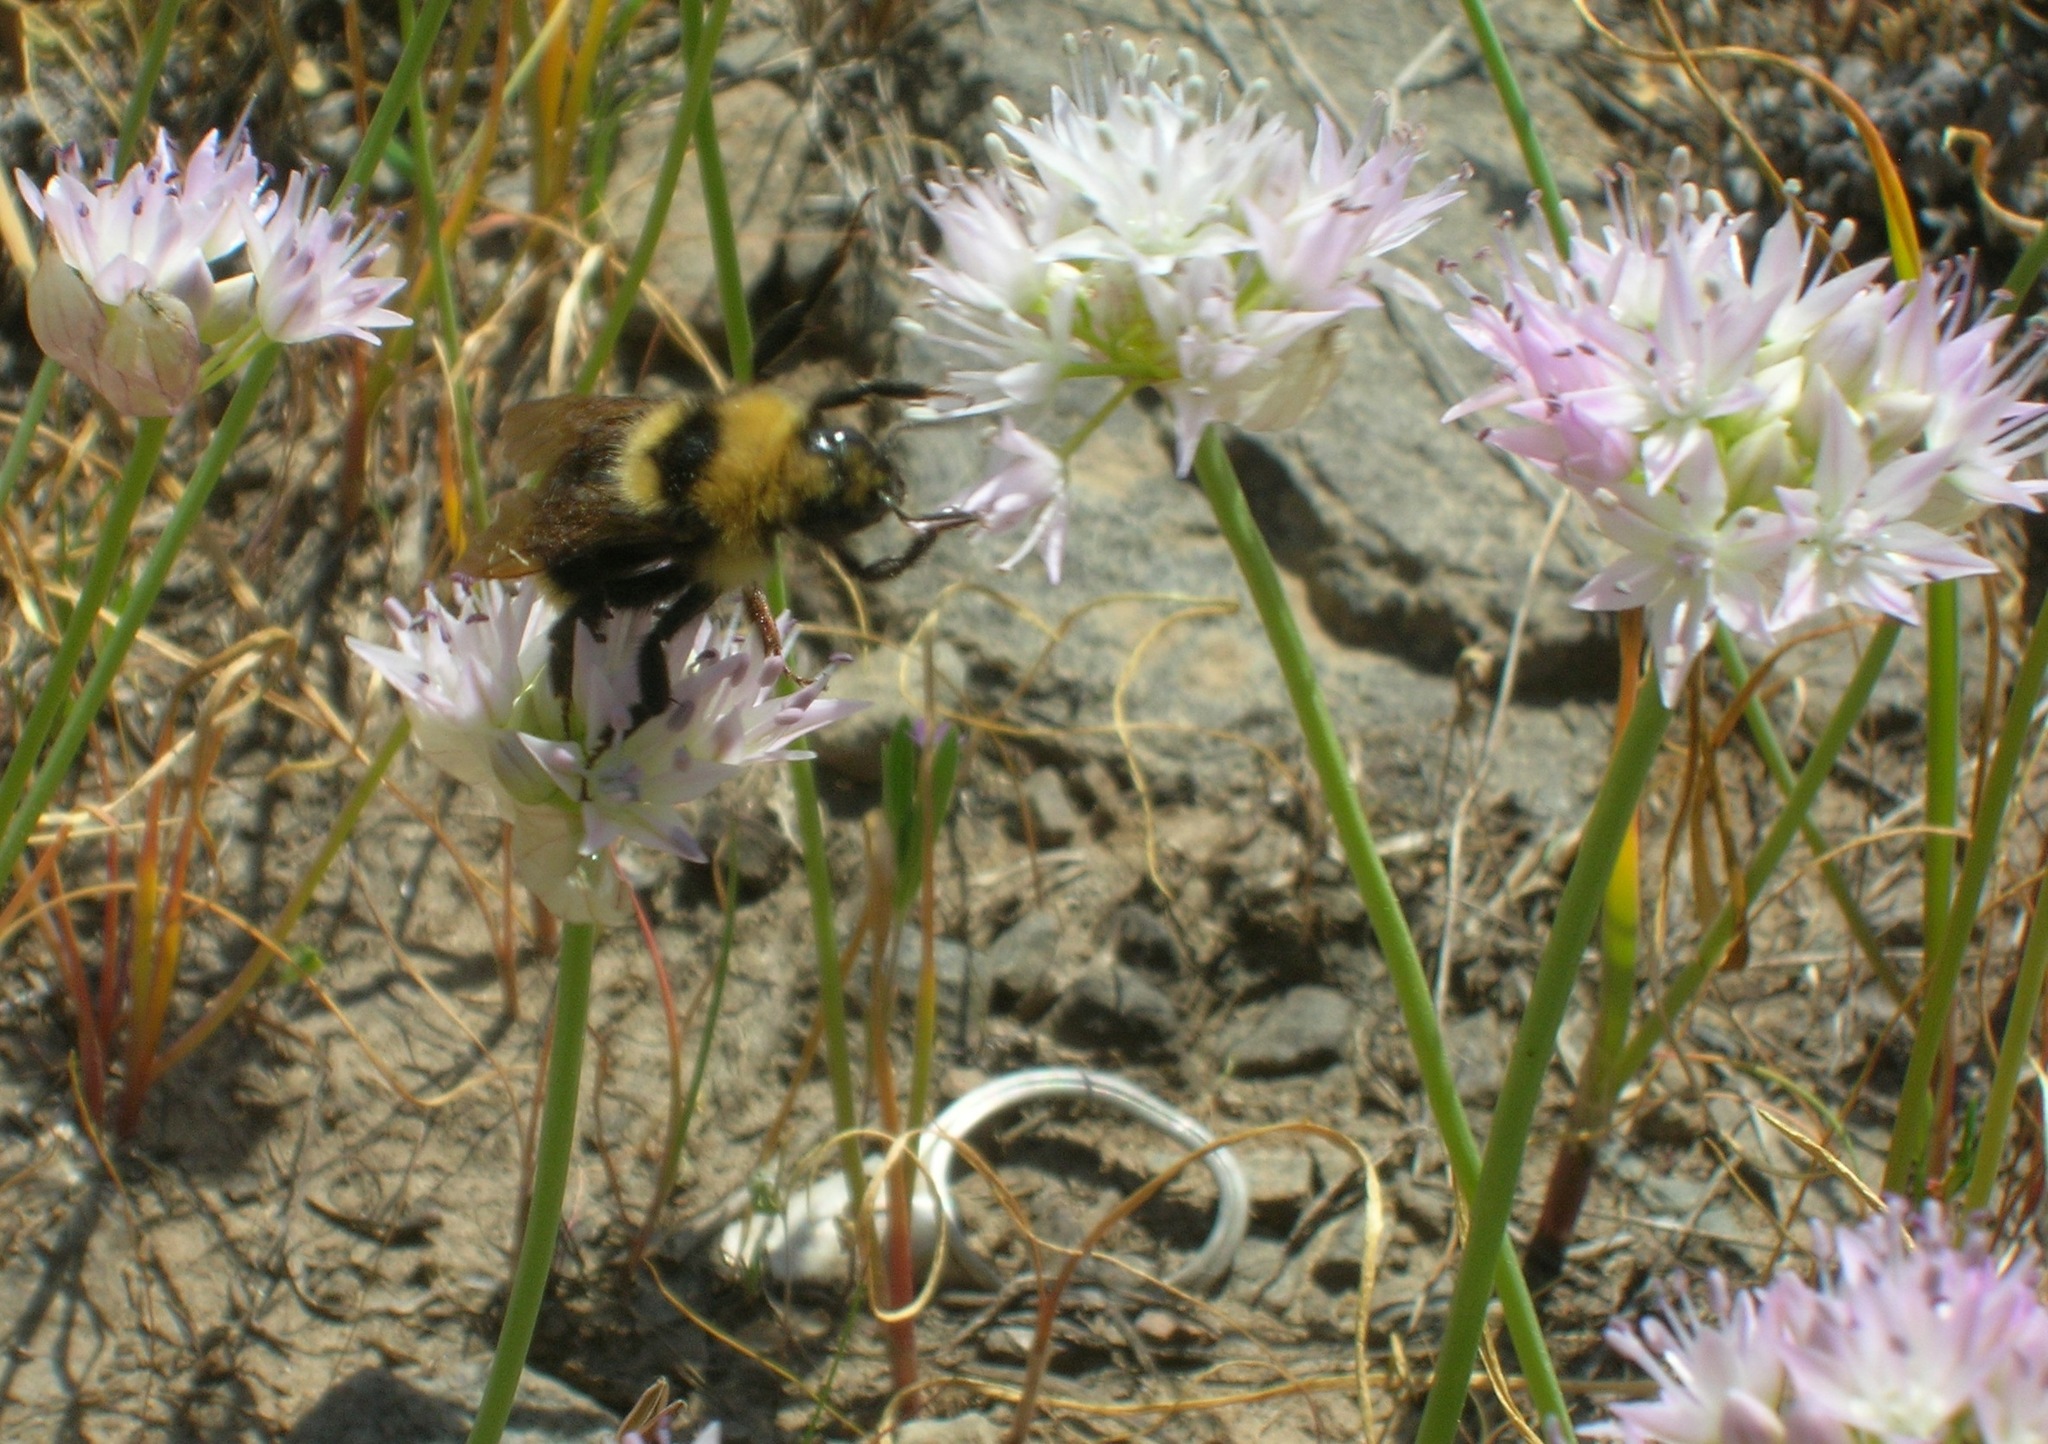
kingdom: Animalia
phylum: Arthropoda
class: Insecta
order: Hymenoptera
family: Apidae
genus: Bombus
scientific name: Bombus
